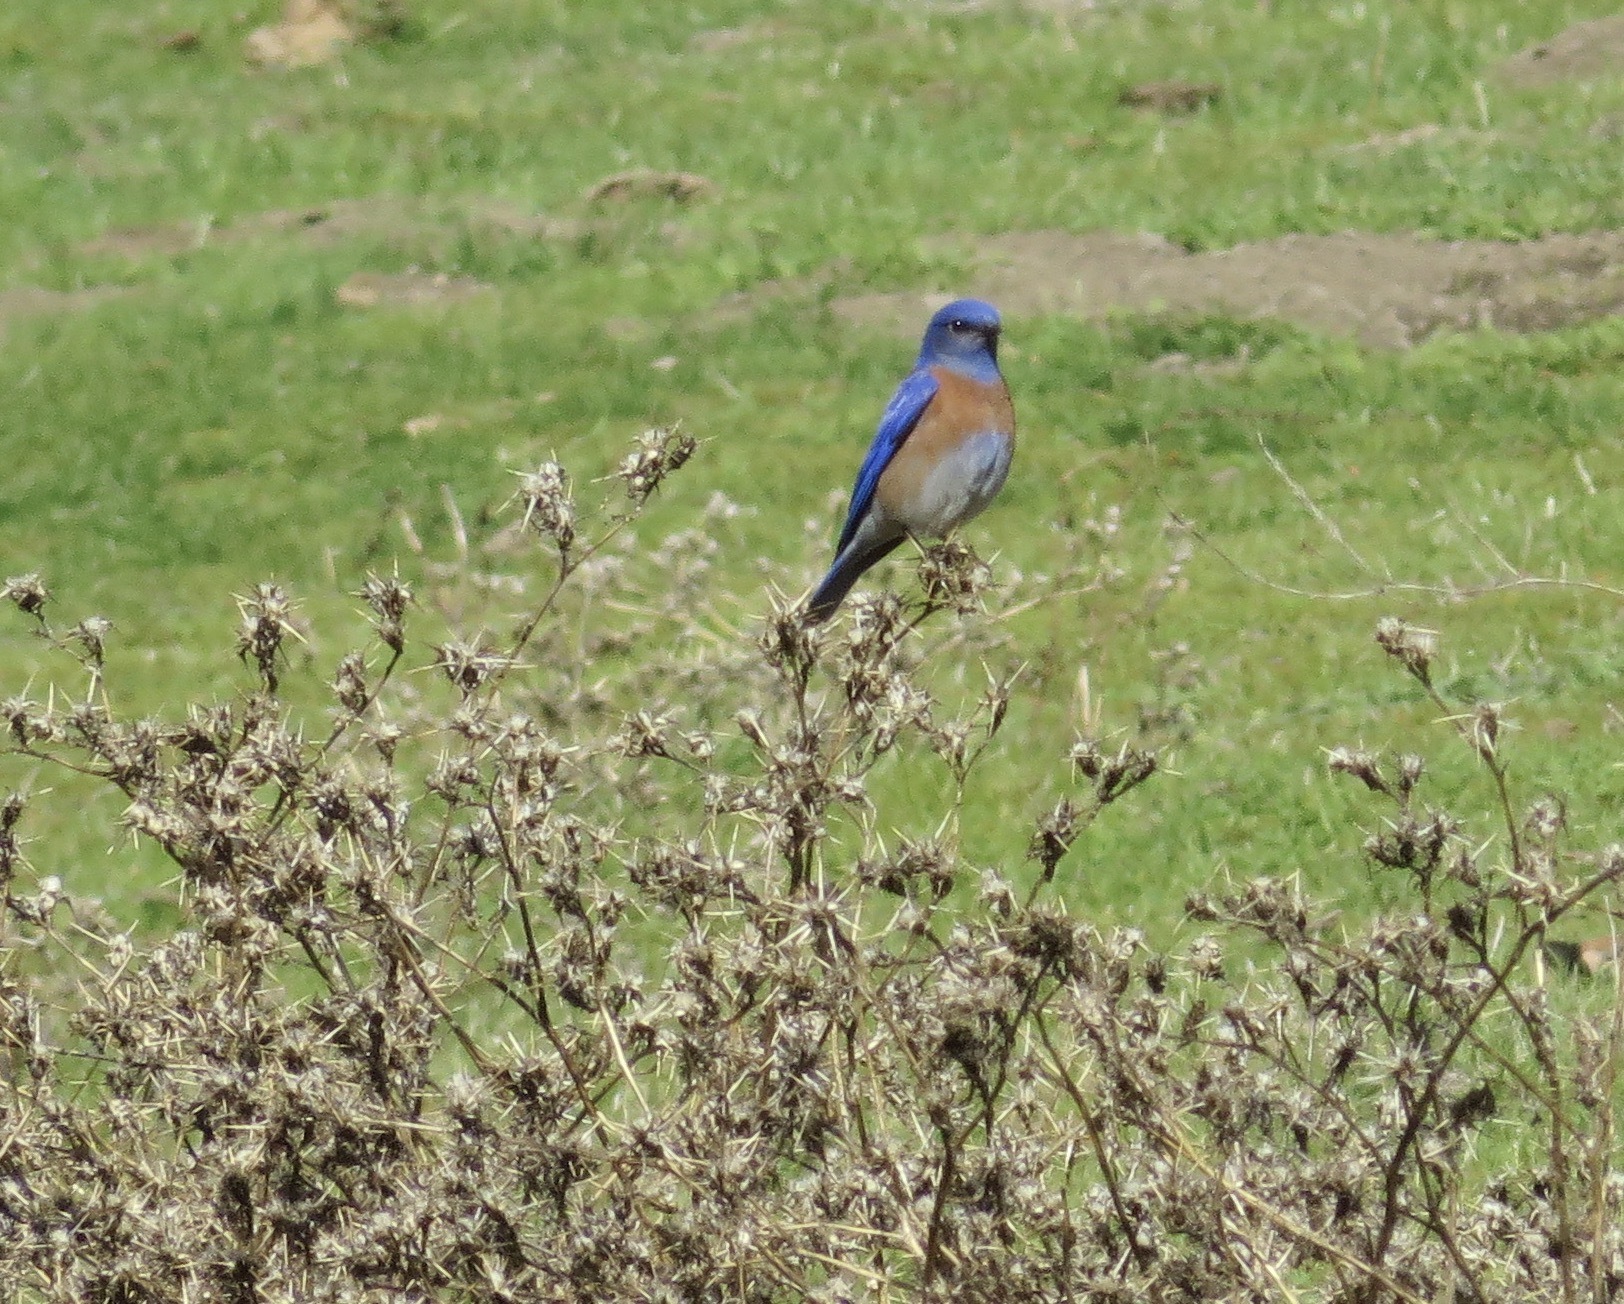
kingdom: Animalia
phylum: Chordata
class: Aves
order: Passeriformes
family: Turdidae
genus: Sialia
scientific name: Sialia mexicana
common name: Western bluebird
